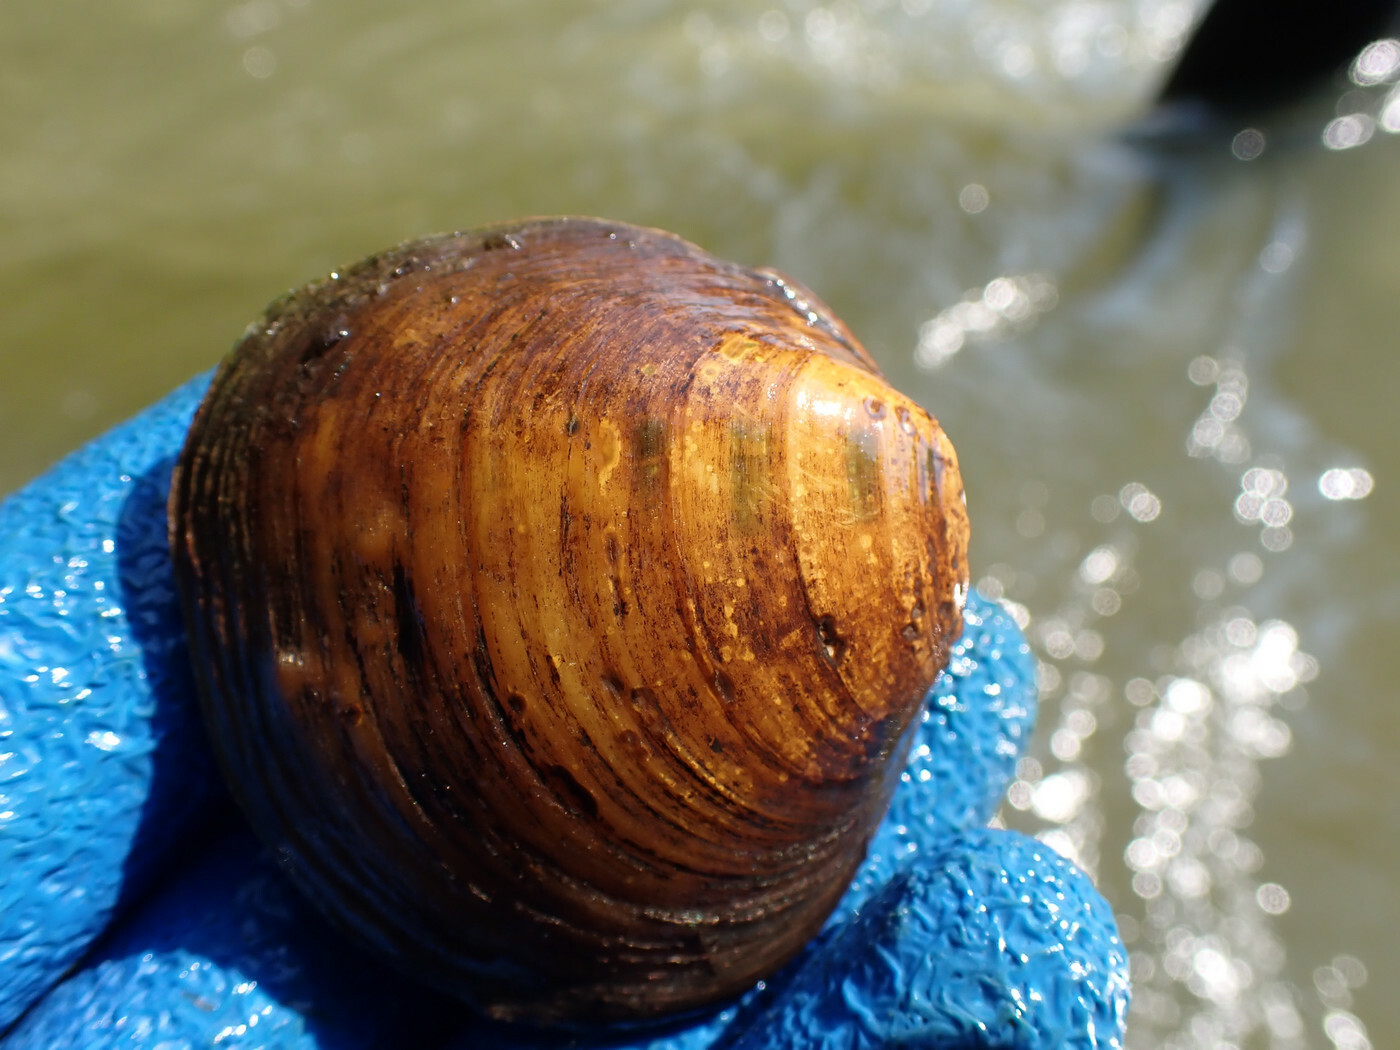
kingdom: Animalia
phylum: Mollusca
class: Bivalvia
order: Unionida
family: Unionidae
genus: Cyclonaias
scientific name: Cyclonaias pustulosa
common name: Pimpleback
